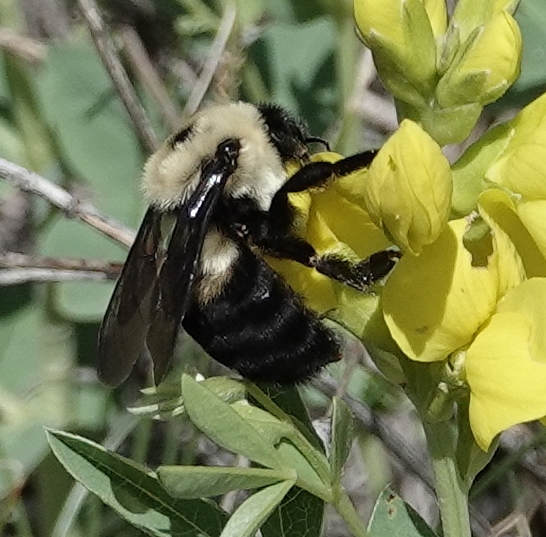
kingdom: Animalia
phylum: Arthropoda
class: Insecta
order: Hymenoptera
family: Apidae
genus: Bombus
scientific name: Bombus griseocollis
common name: Brown-belted bumble bee
